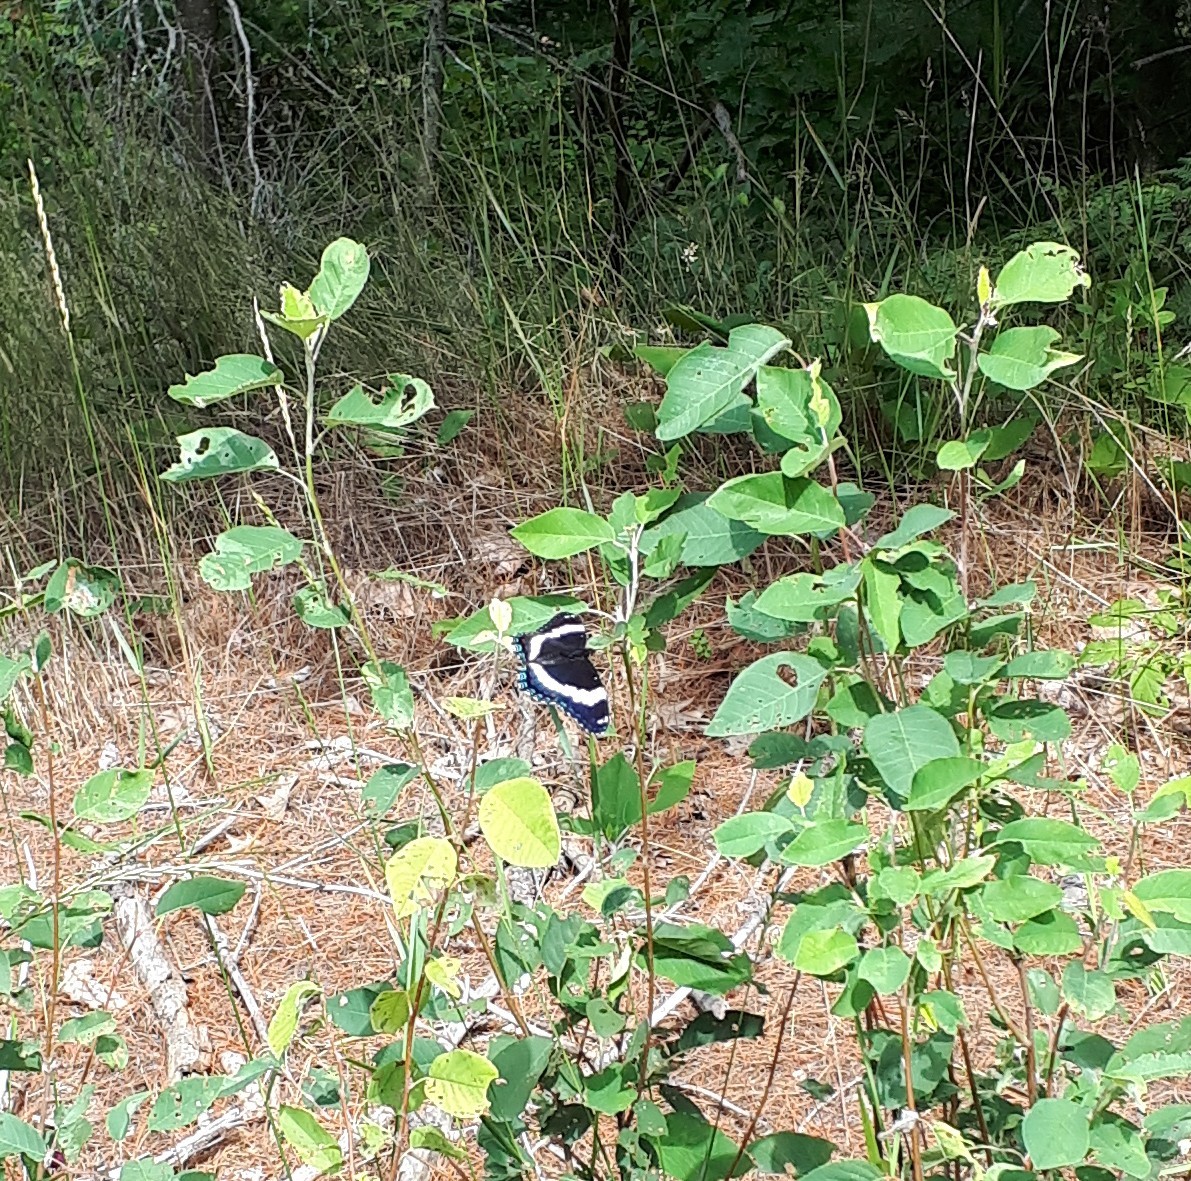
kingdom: Animalia
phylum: Arthropoda
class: Insecta
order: Lepidoptera
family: Nymphalidae
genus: Limenitis
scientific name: Limenitis arthemis
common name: Red-spotted admiral
